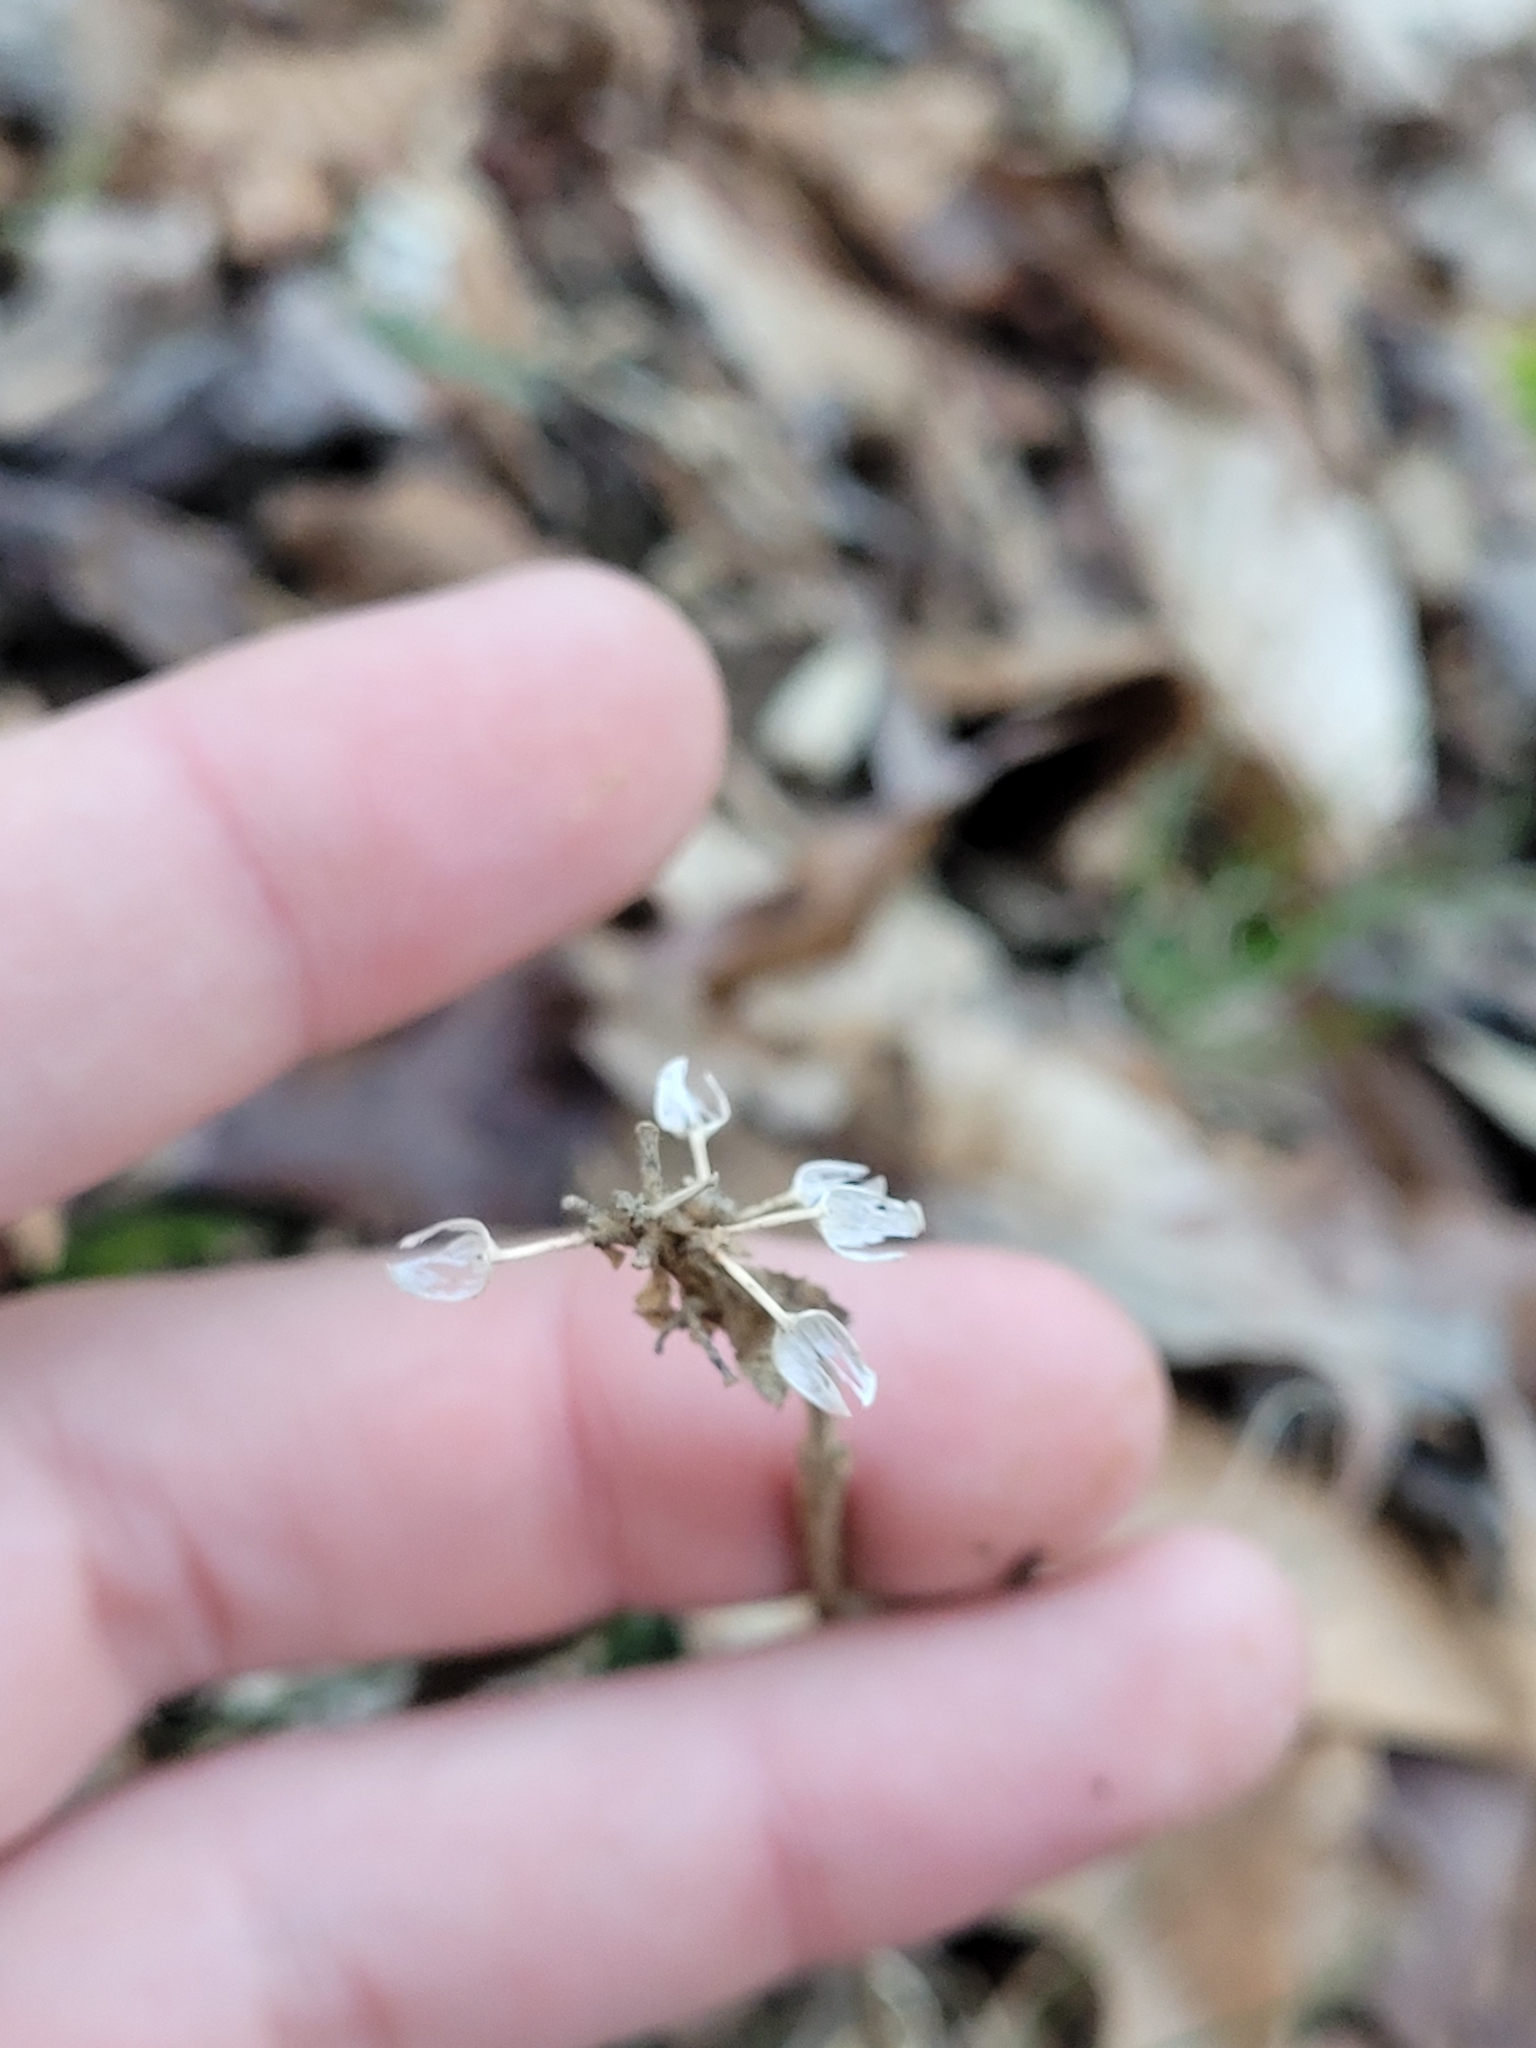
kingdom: Plantae
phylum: Tracheophyta
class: Magnoliopsida
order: Lamiales
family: Plantaginaceae
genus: Plantago
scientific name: Plantago lanceolata
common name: Ribwort plantain
